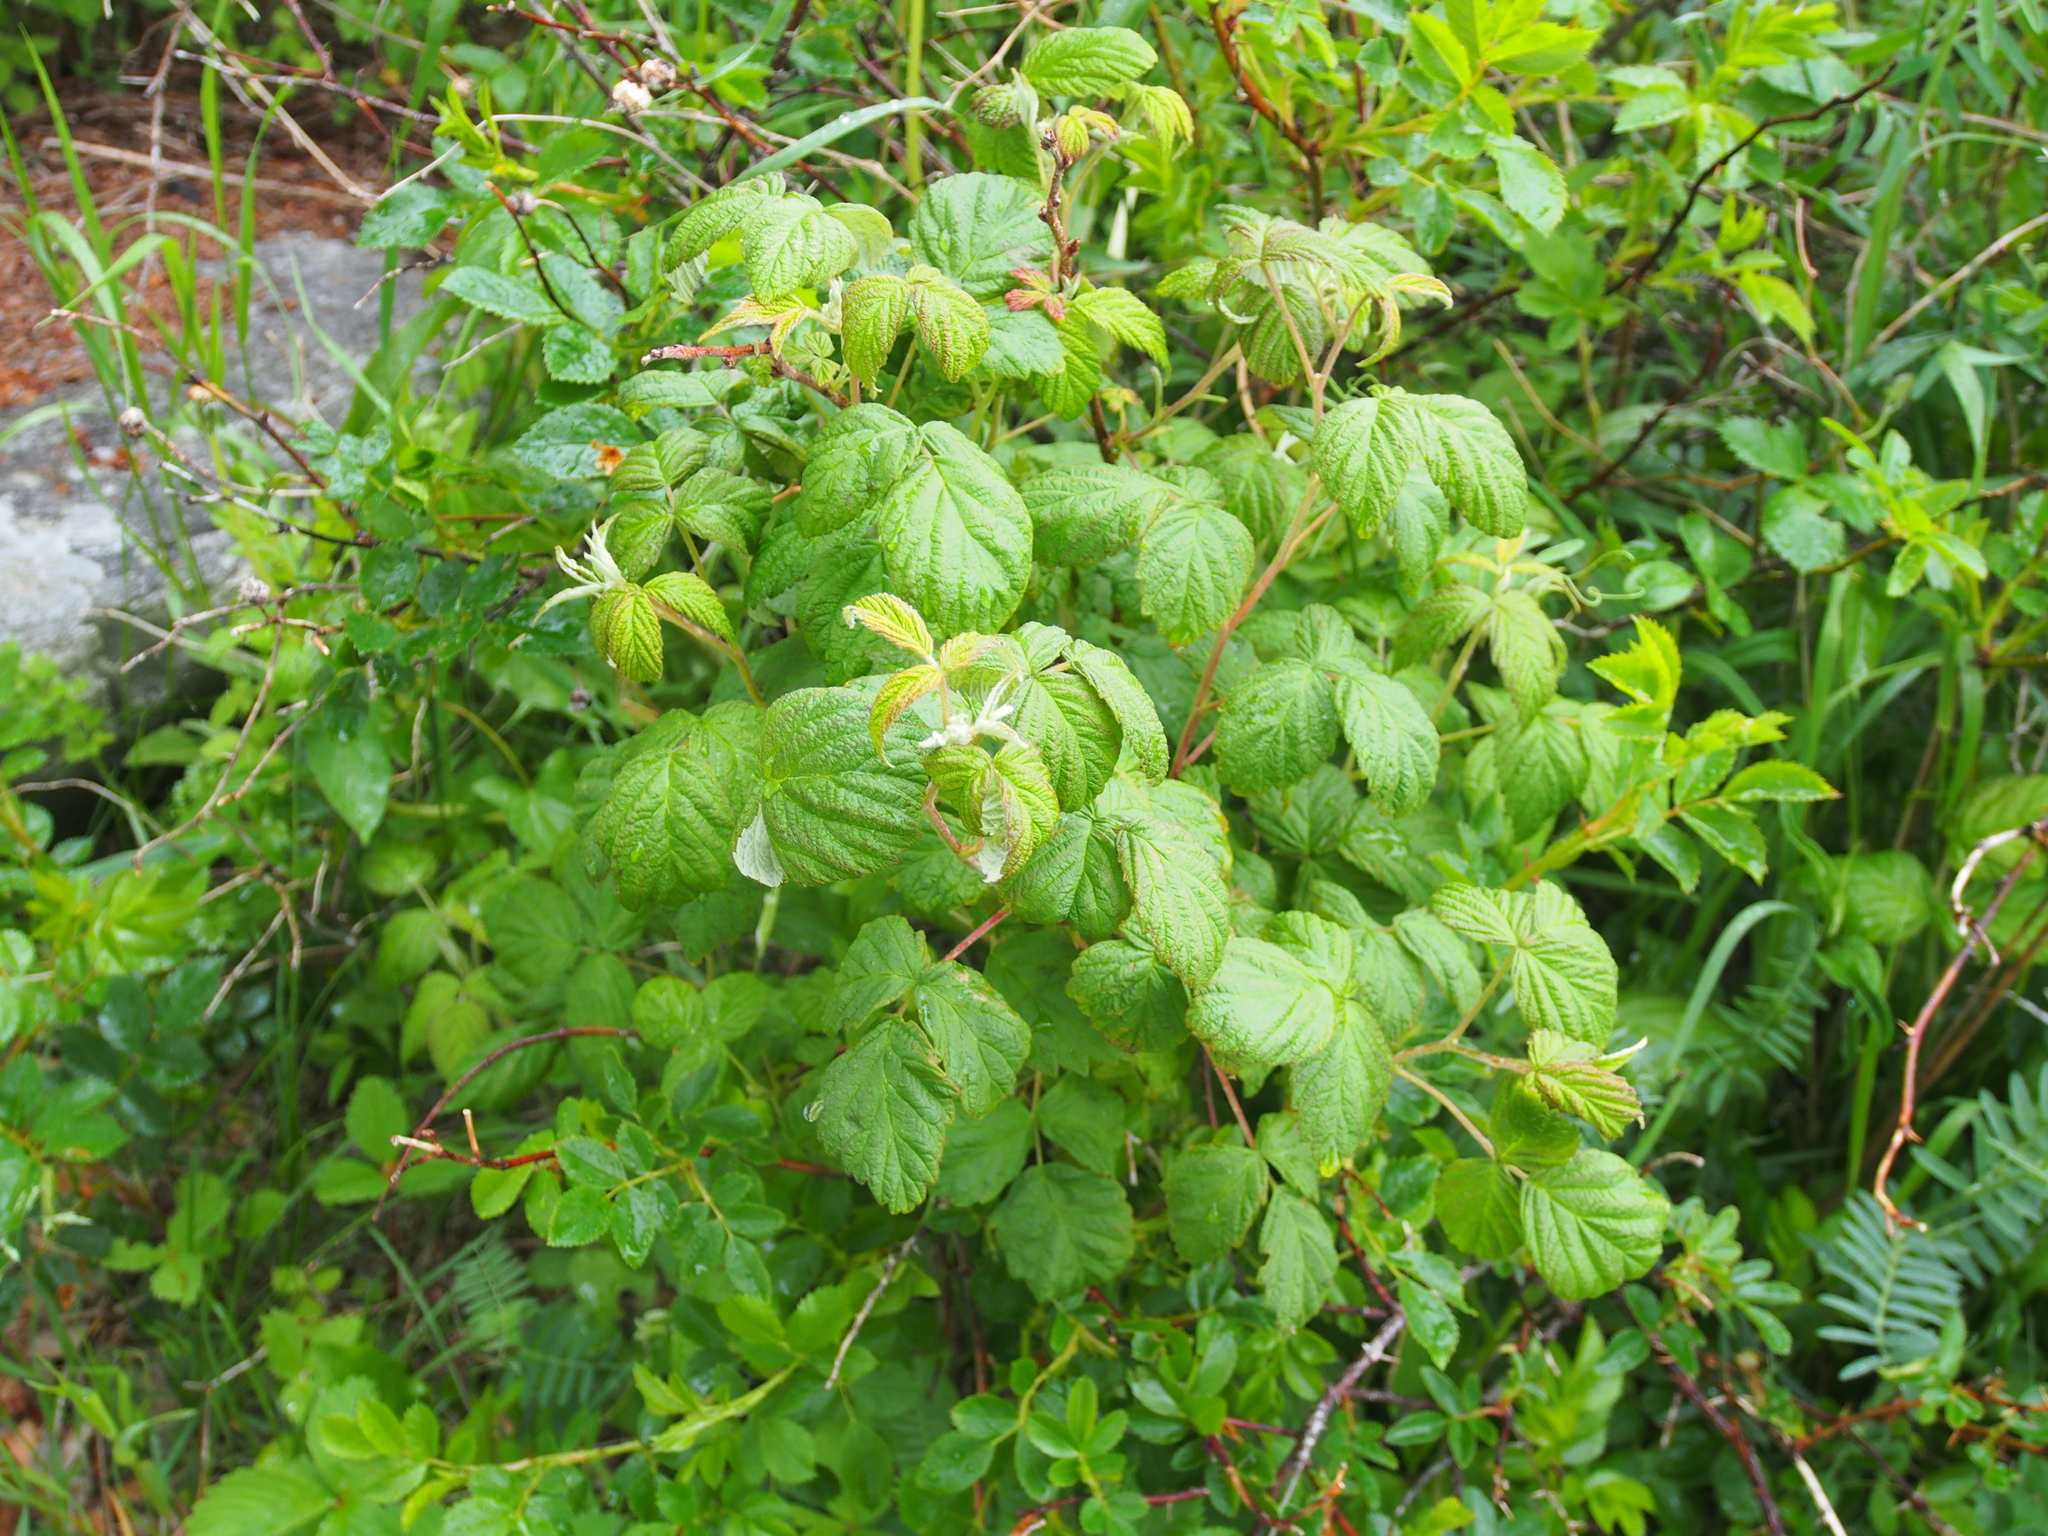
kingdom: Plantae
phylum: Tracheophyta
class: Magnoliopsida
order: Rosales
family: Rosaceae
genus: Rubus
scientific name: Rubus idaeus
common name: Raspberry
